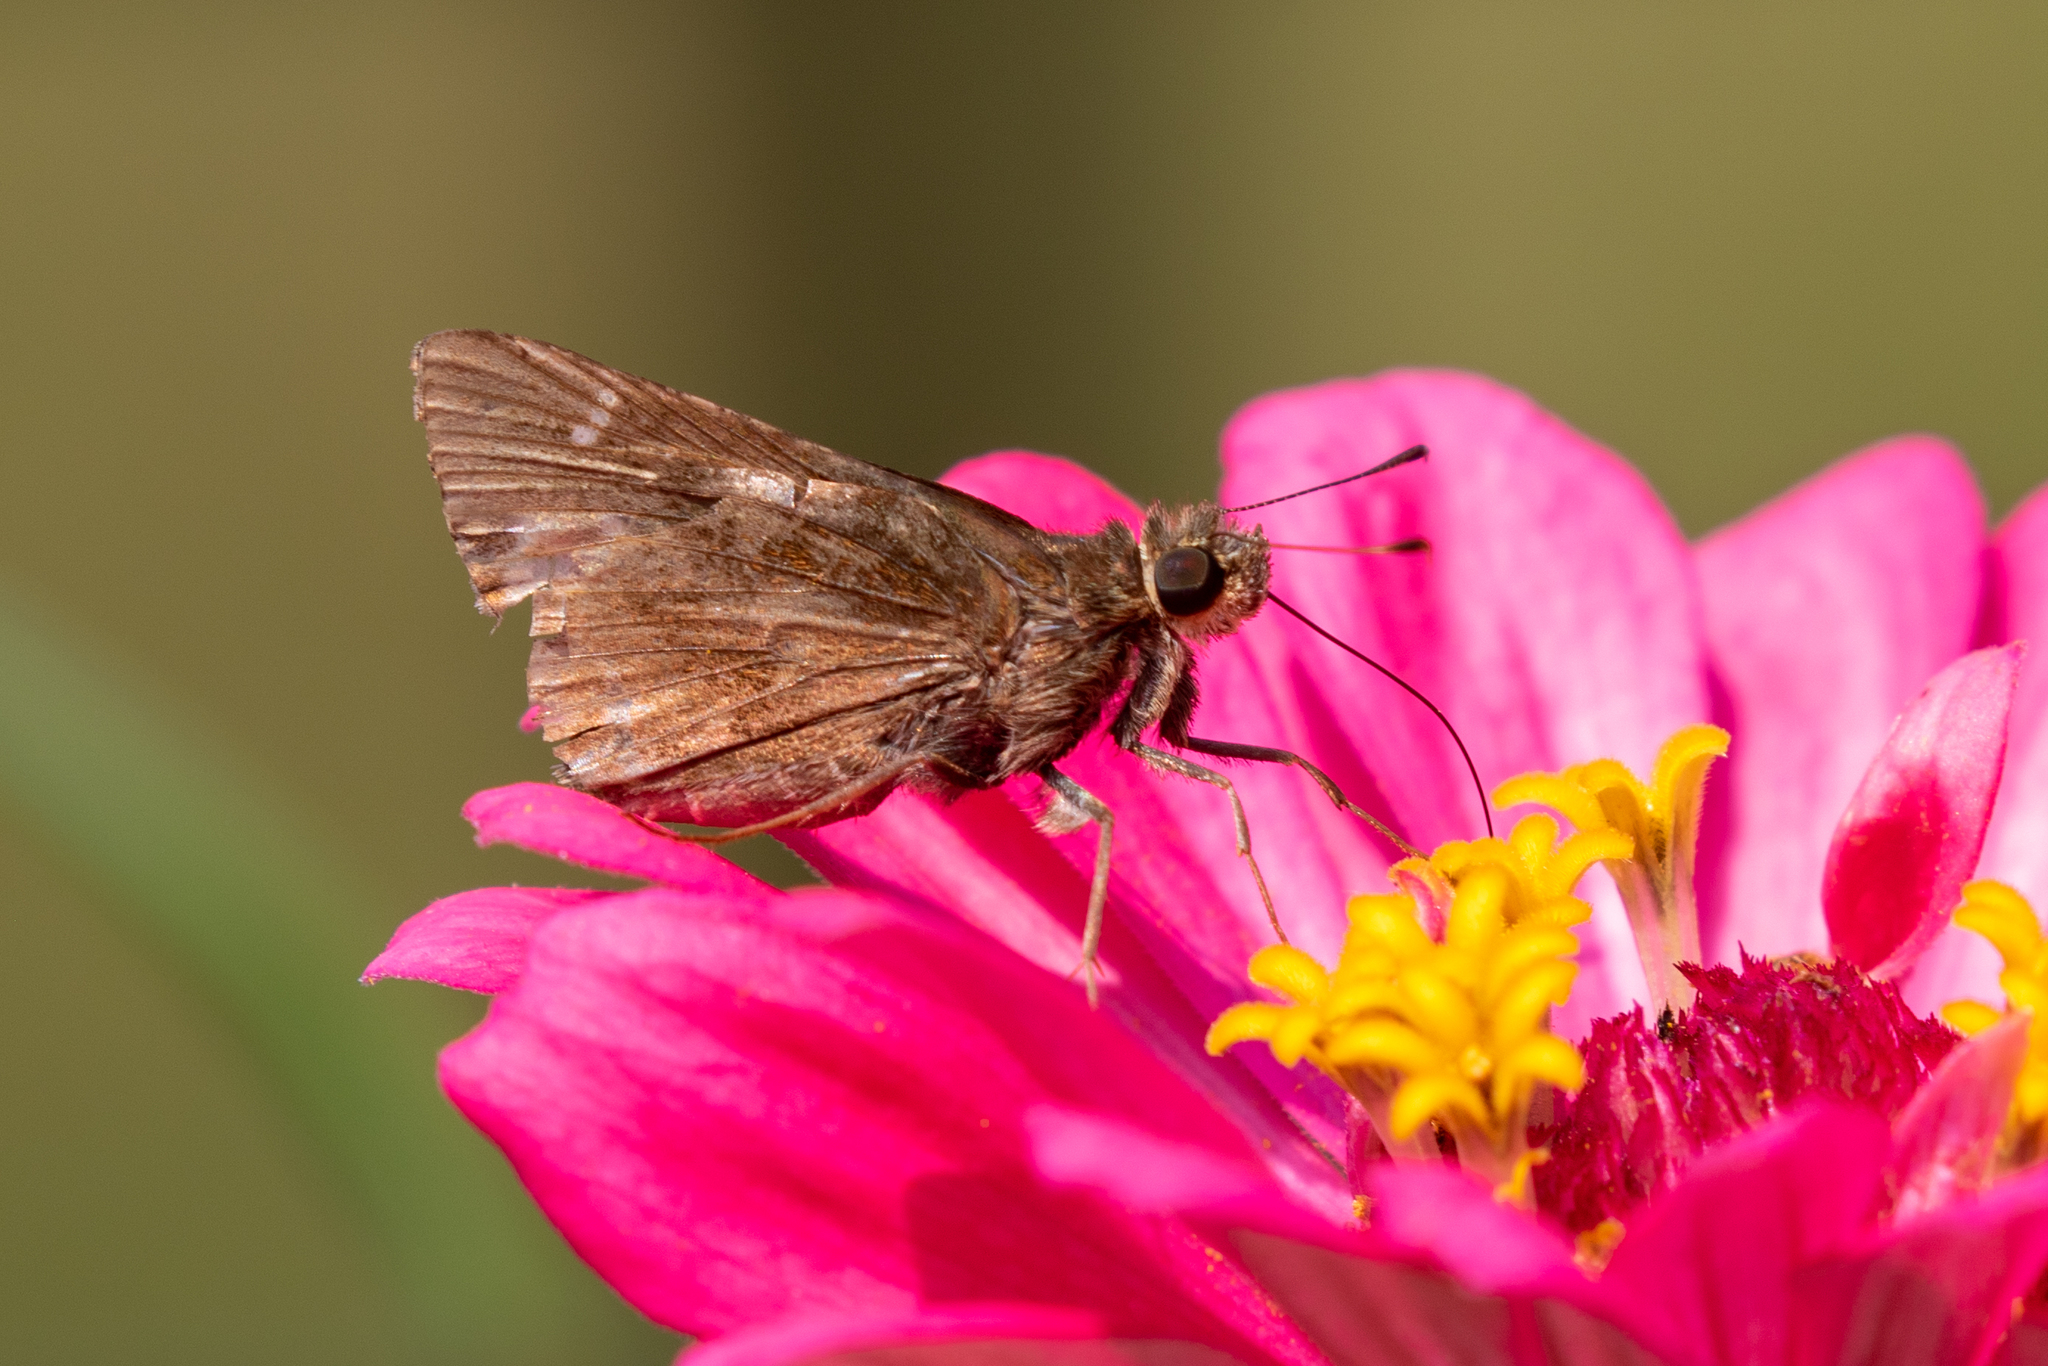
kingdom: Animalia
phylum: Arthropoda
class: Insecta
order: Lepidoptera
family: Hesperiidae
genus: Lerema
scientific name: Lerema accius
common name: Clouded skipper
